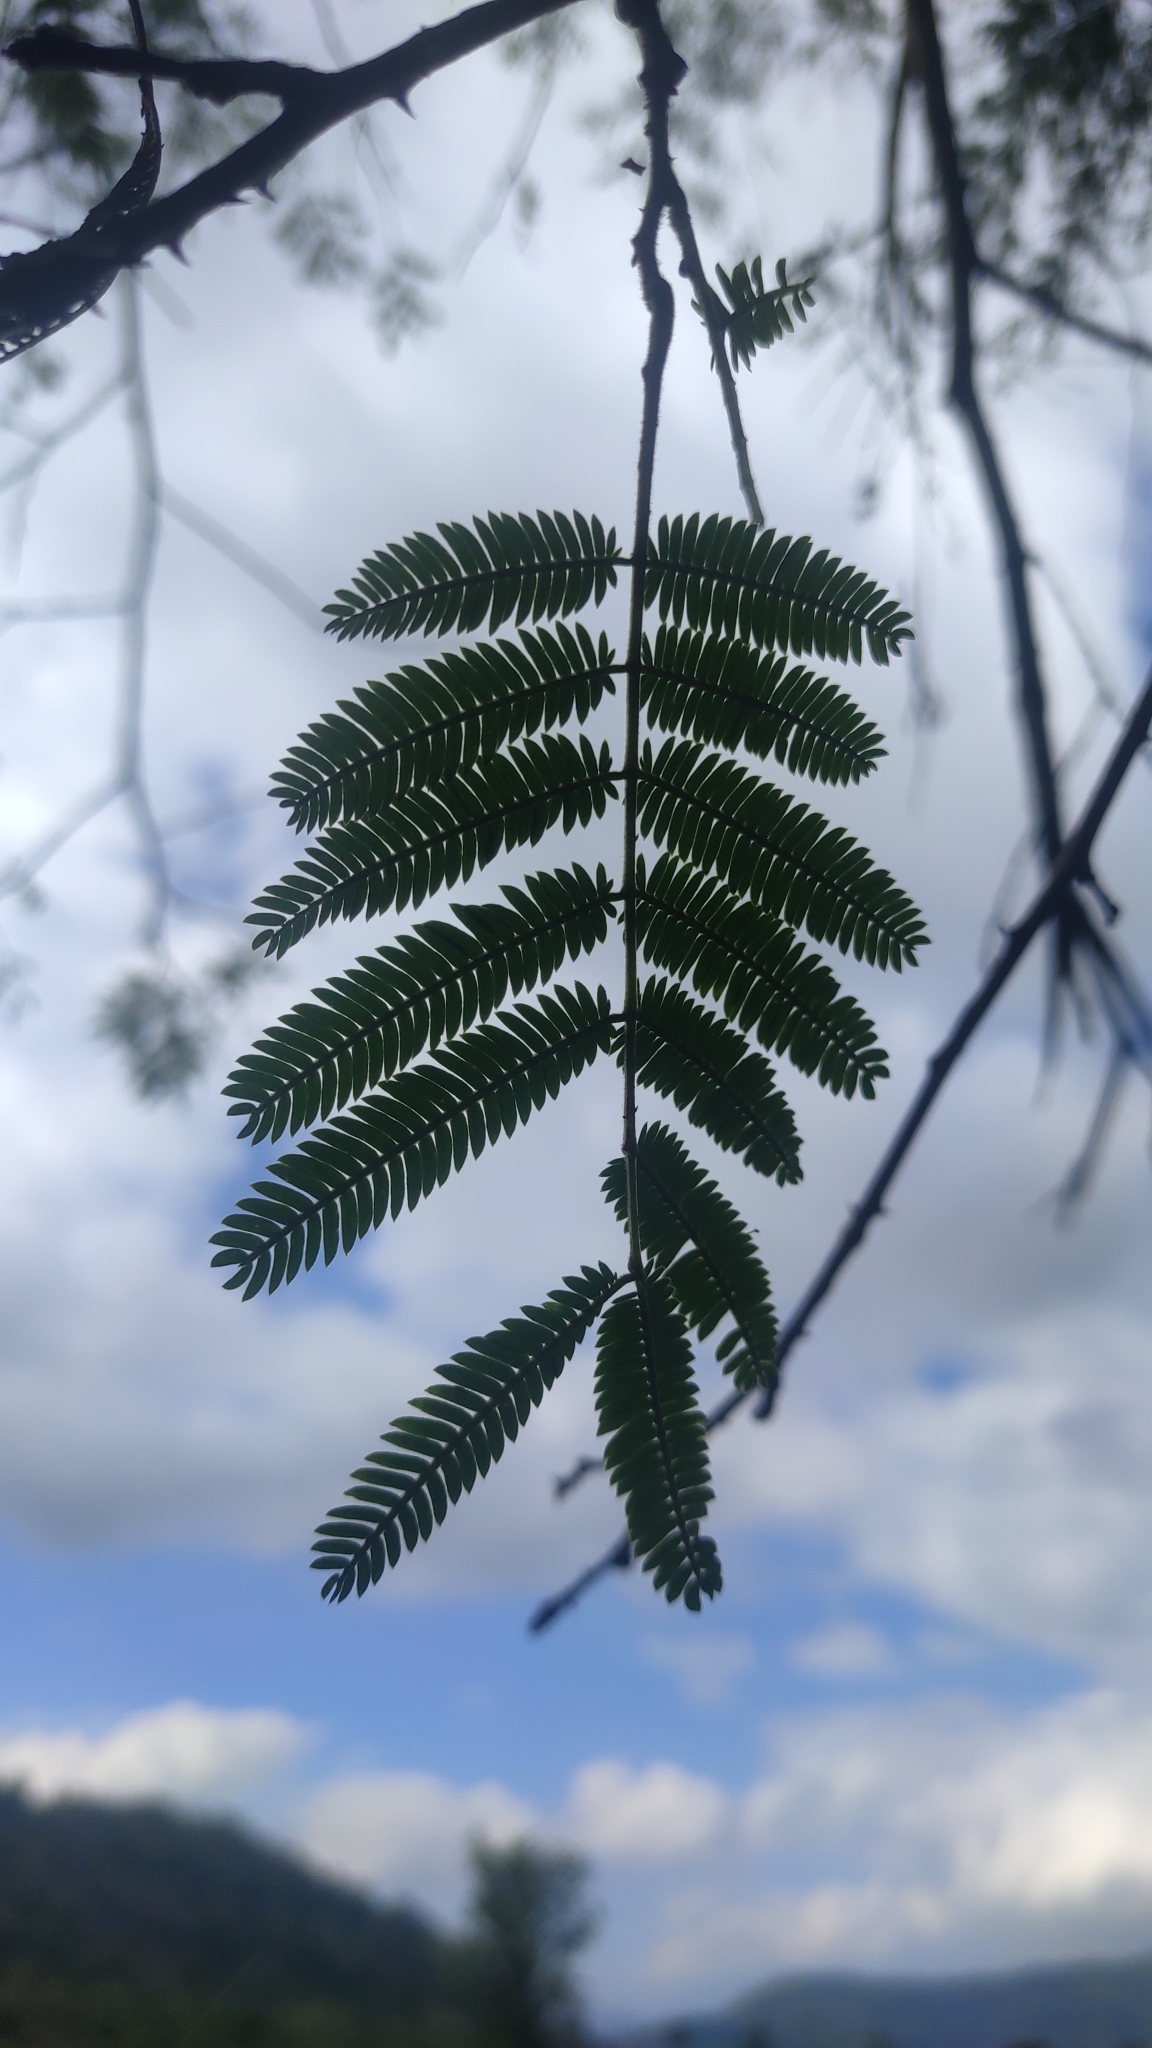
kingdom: Plantae
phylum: Tracheophyta
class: Magnoliopsida
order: Fabales
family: Fabaceae
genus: Senegalia
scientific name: Senegalia rugata
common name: Soap-pod
